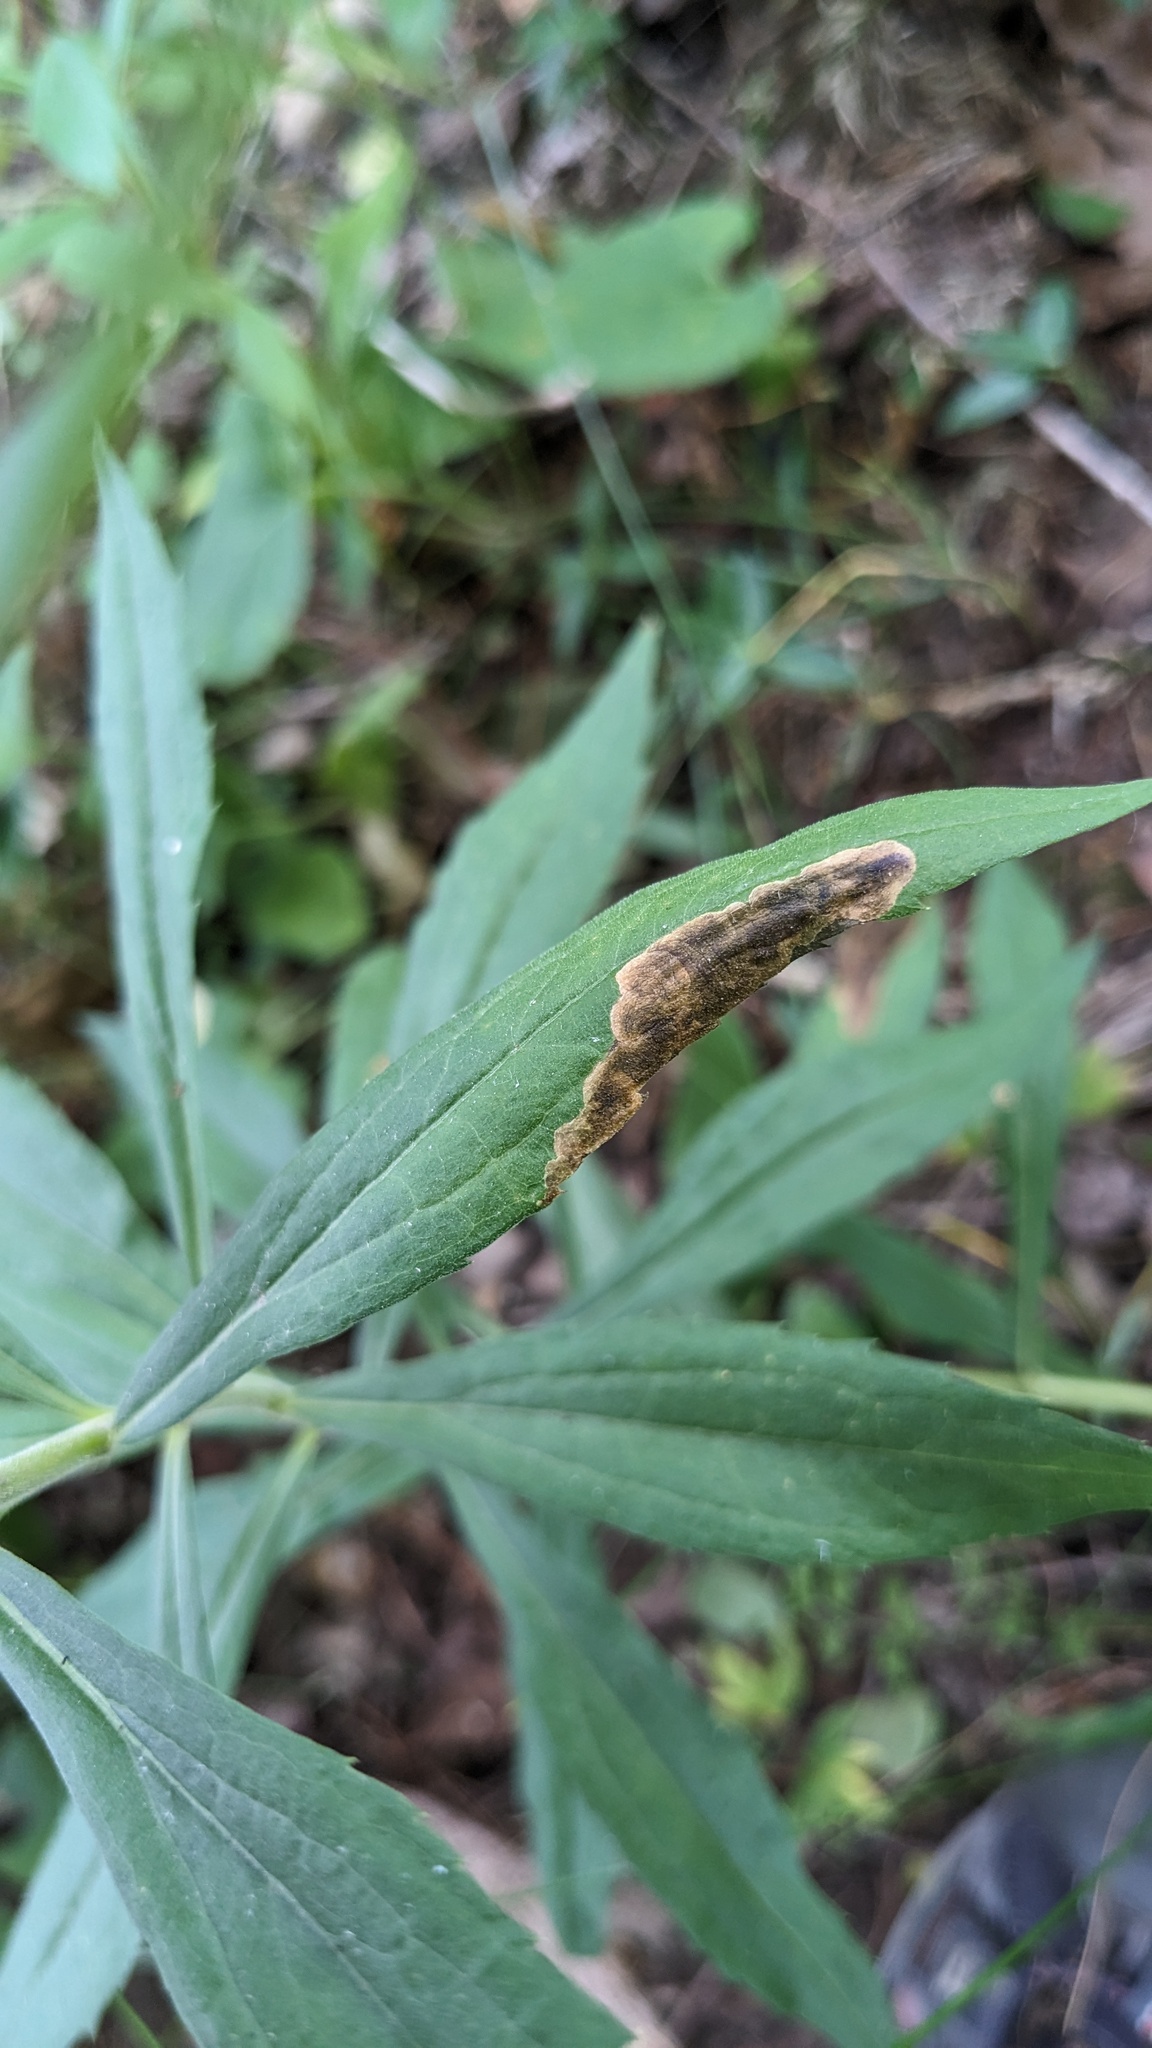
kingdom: Animalia
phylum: Arthropoda
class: Insecta
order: Diptera
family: Agromyzidae
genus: Nemorimyza
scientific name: Nemorimyza posticata
